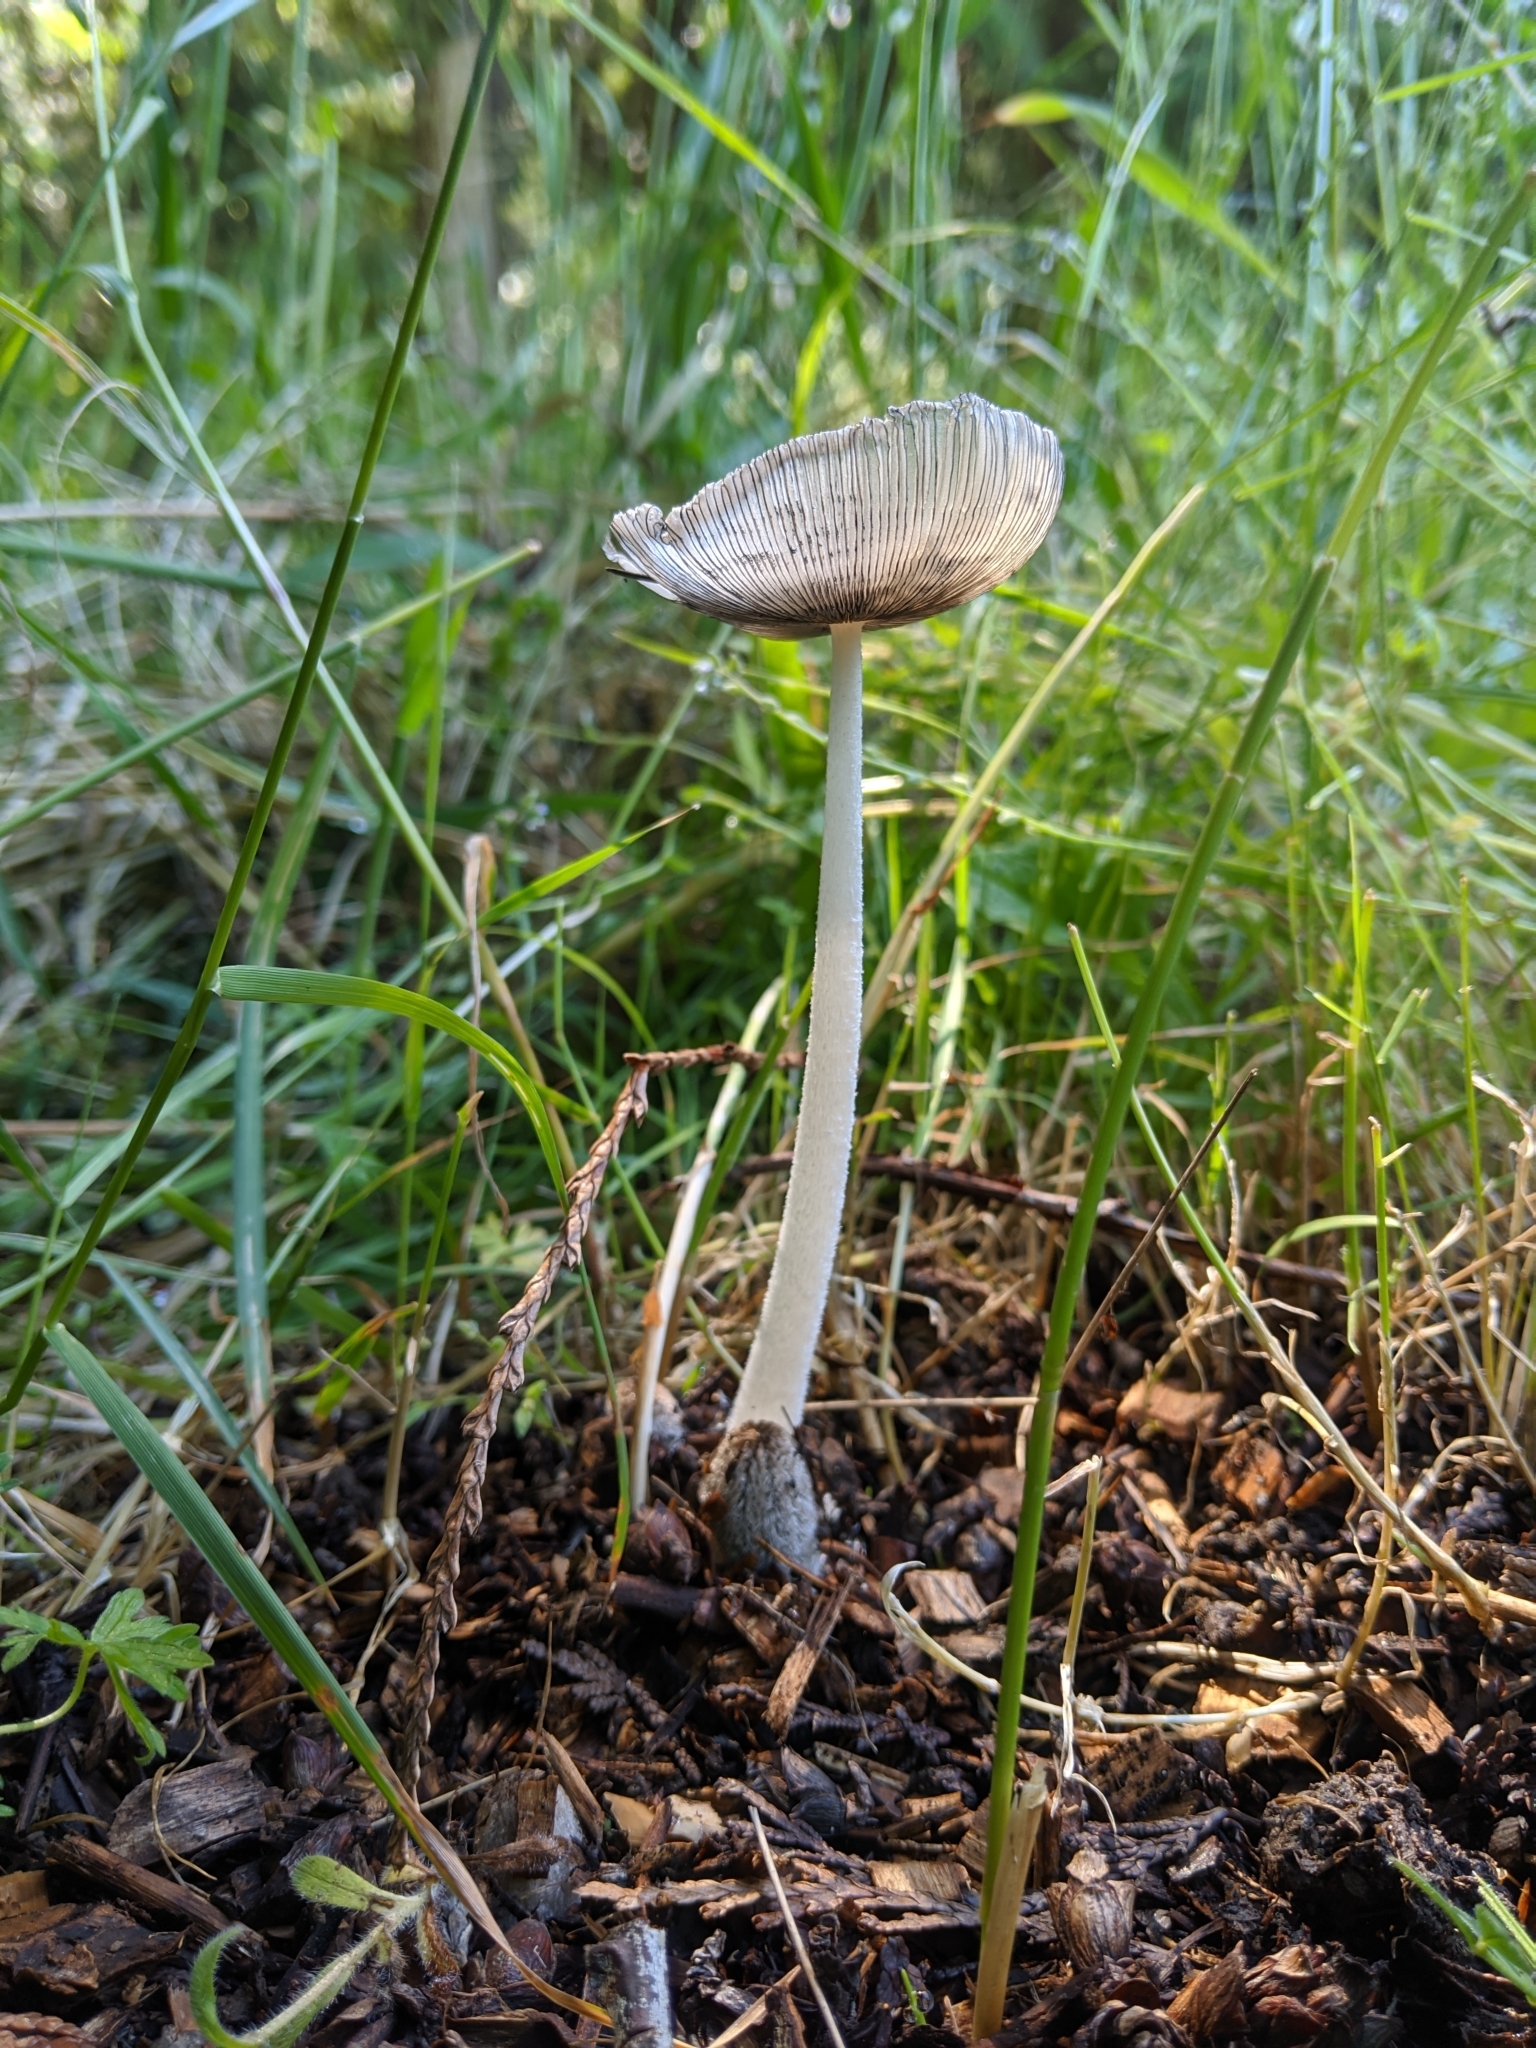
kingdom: Fungi
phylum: Basidiomycota
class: Agaricomycetes
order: Agaricales
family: Psathyrellaceae
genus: Coprinopsis
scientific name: Coprinopsis lagopus
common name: Hare'sfoot inkcap
